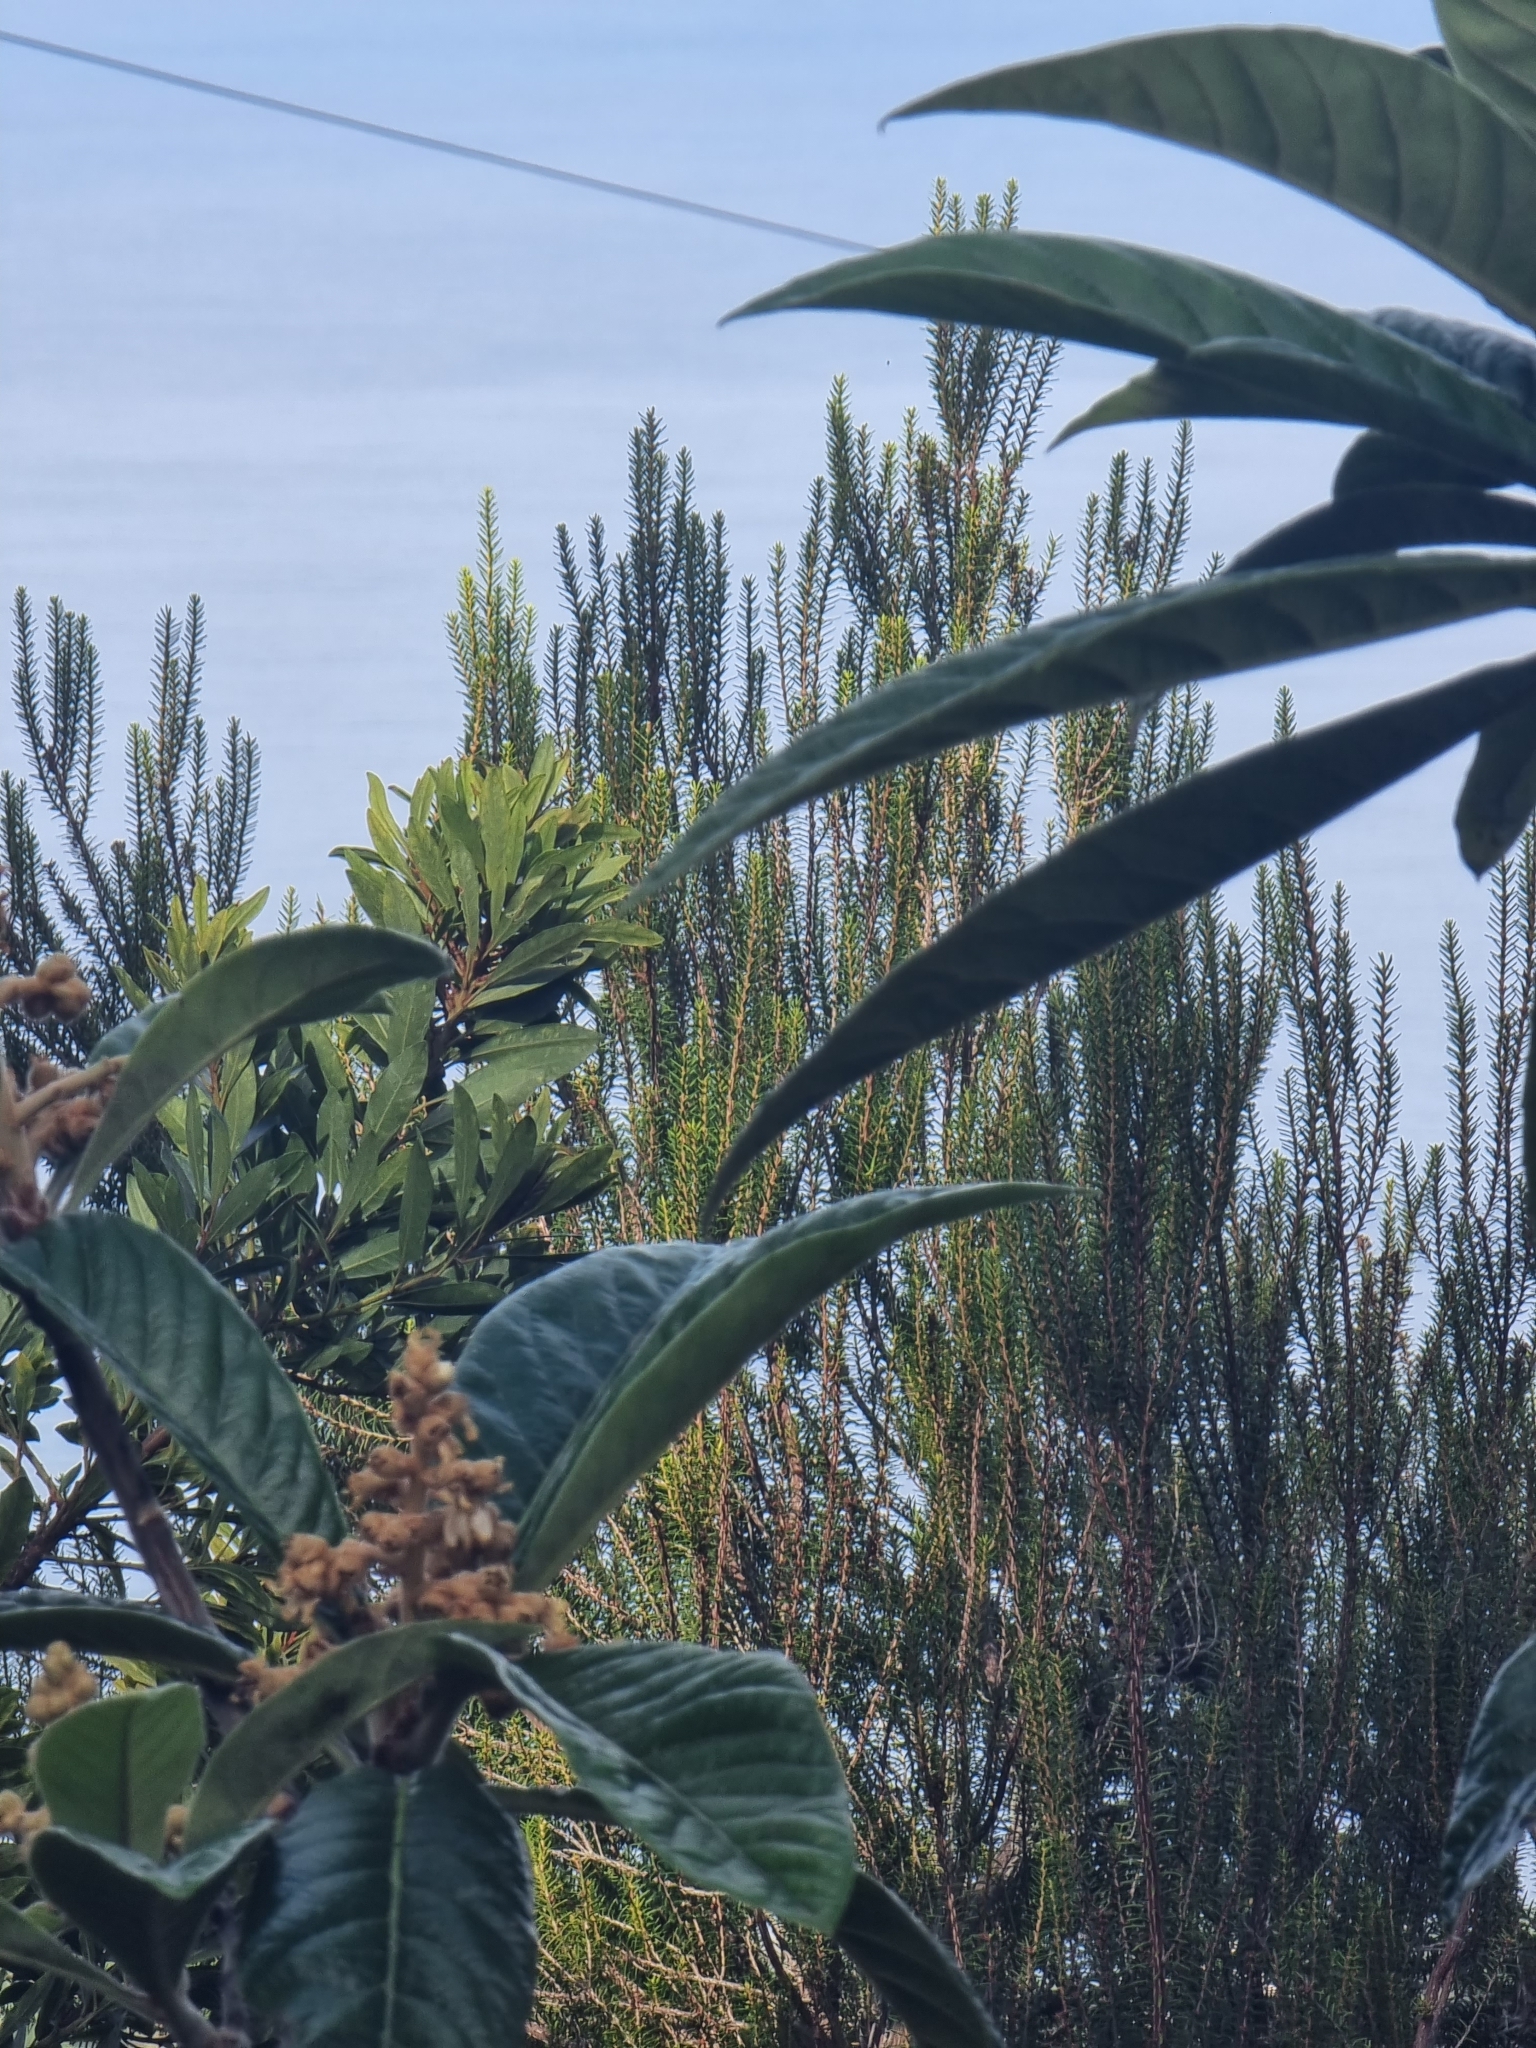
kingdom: Plantae
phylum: Tracheophyta
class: Magnoliopsida
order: Ericales
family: Ericaceae
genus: Erica
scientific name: Erica platycodon
